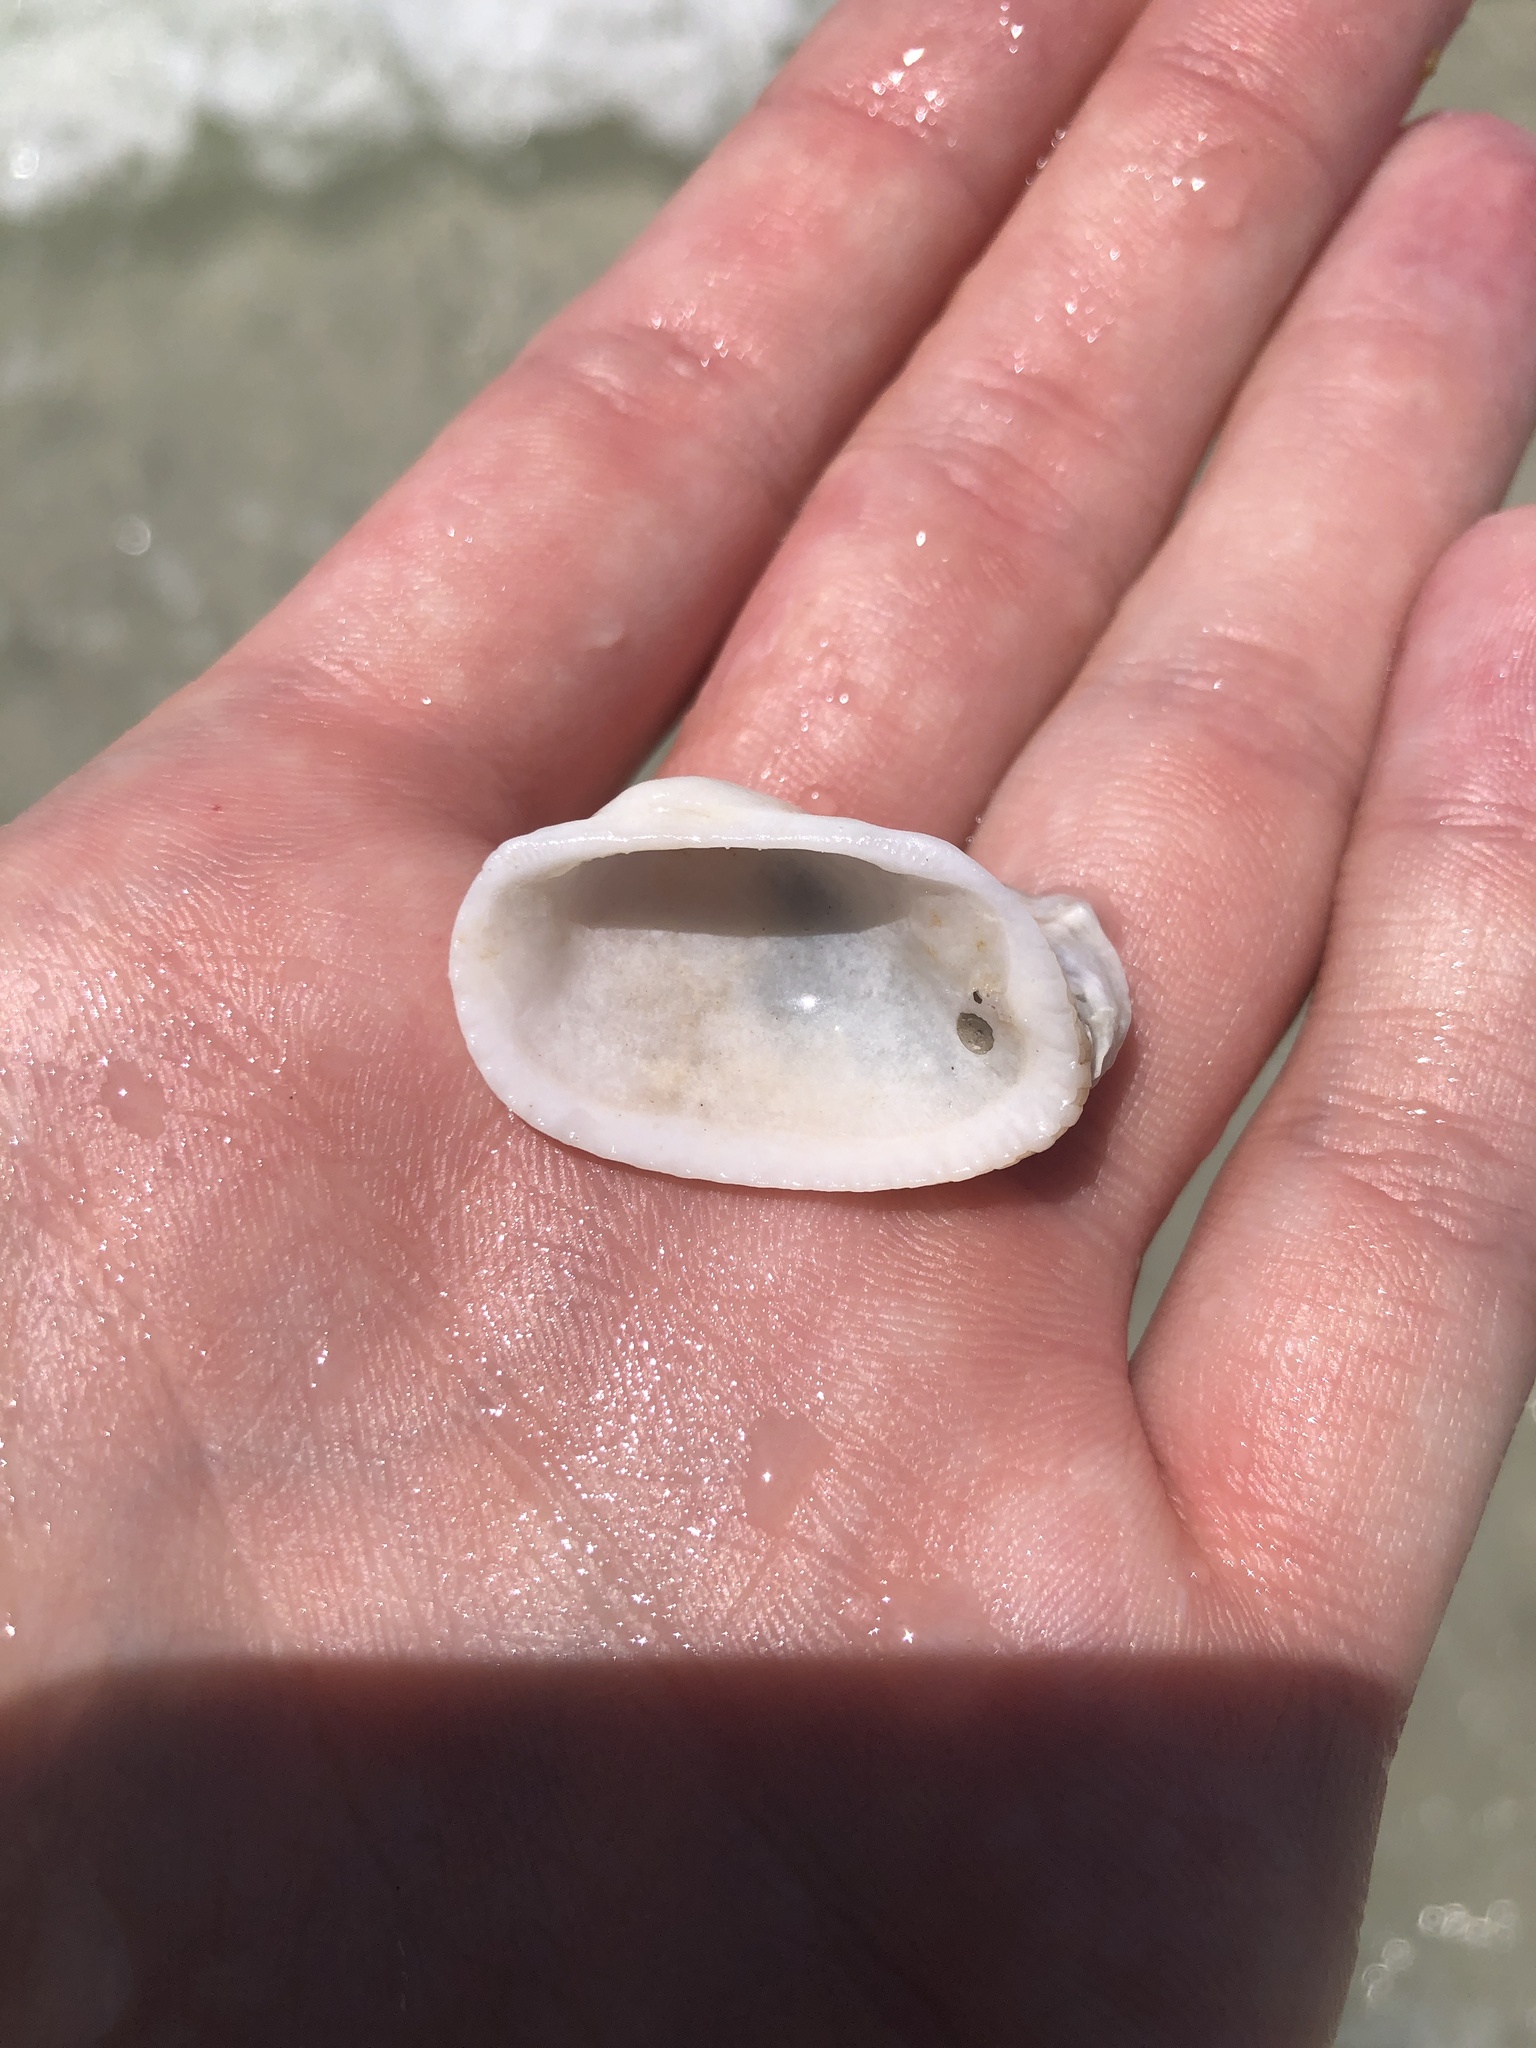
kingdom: Animalia
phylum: Mollusca
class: Bivalvia
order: Arcida
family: Arcidae
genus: Anadara
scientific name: Anadara transversa
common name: Transverse ark
